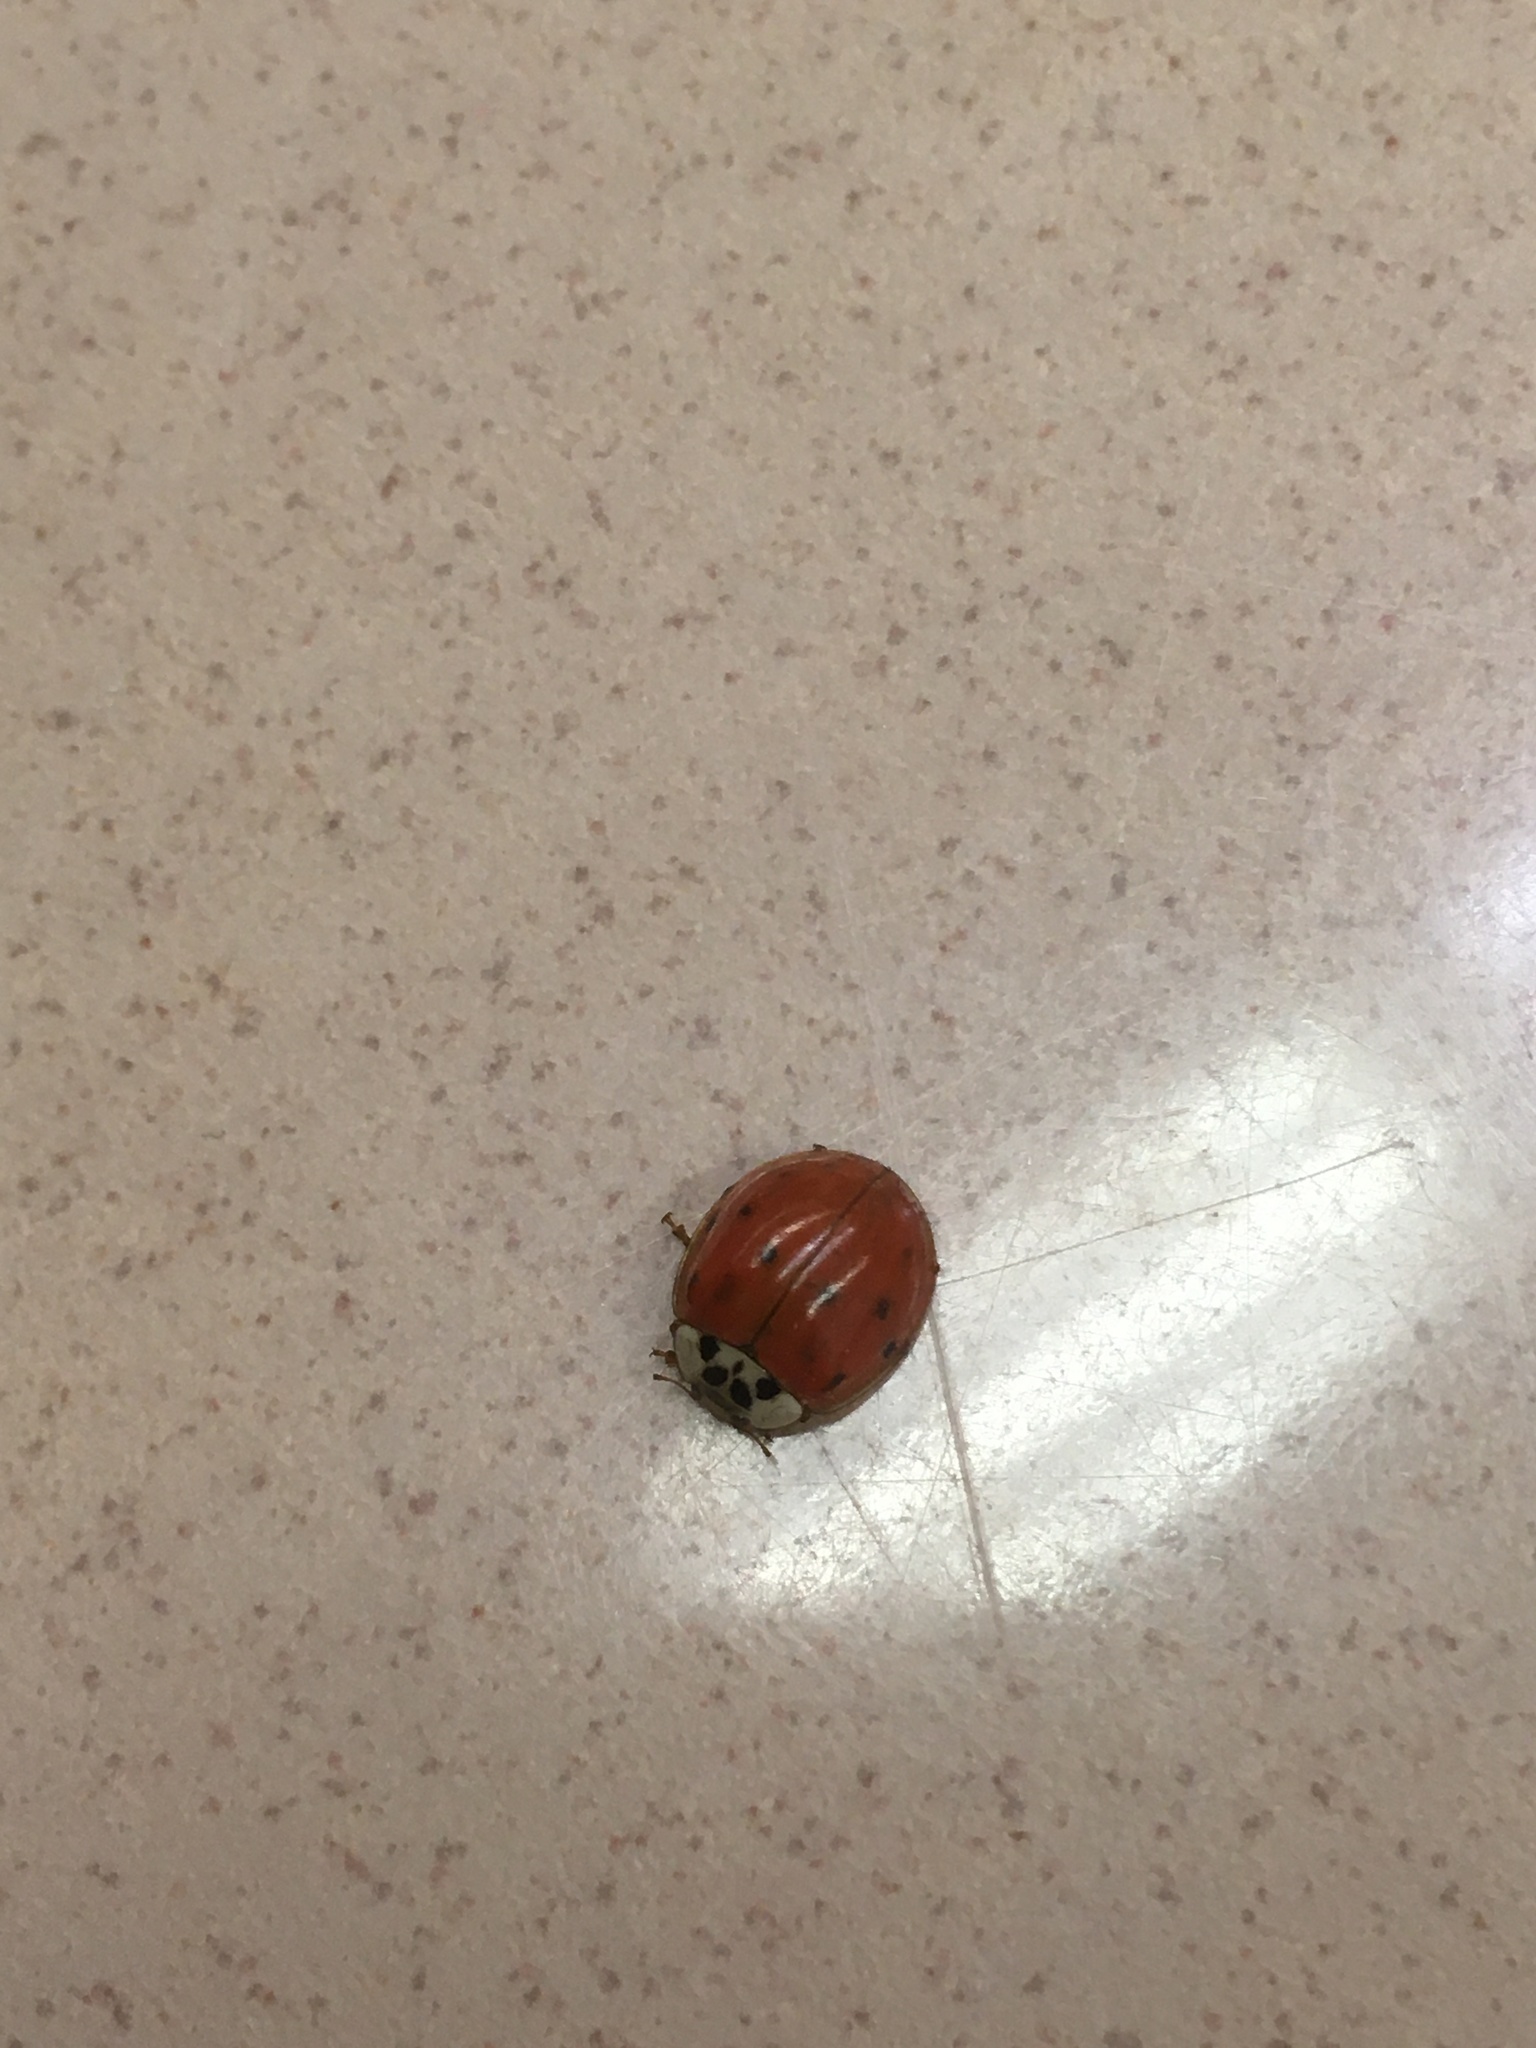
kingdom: Animalia
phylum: Arthropoda
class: Insecta
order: Coleoptera
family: Coccinellidae
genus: Harmonia
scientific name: Harmonia axyridis
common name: Harlequin ladybird
